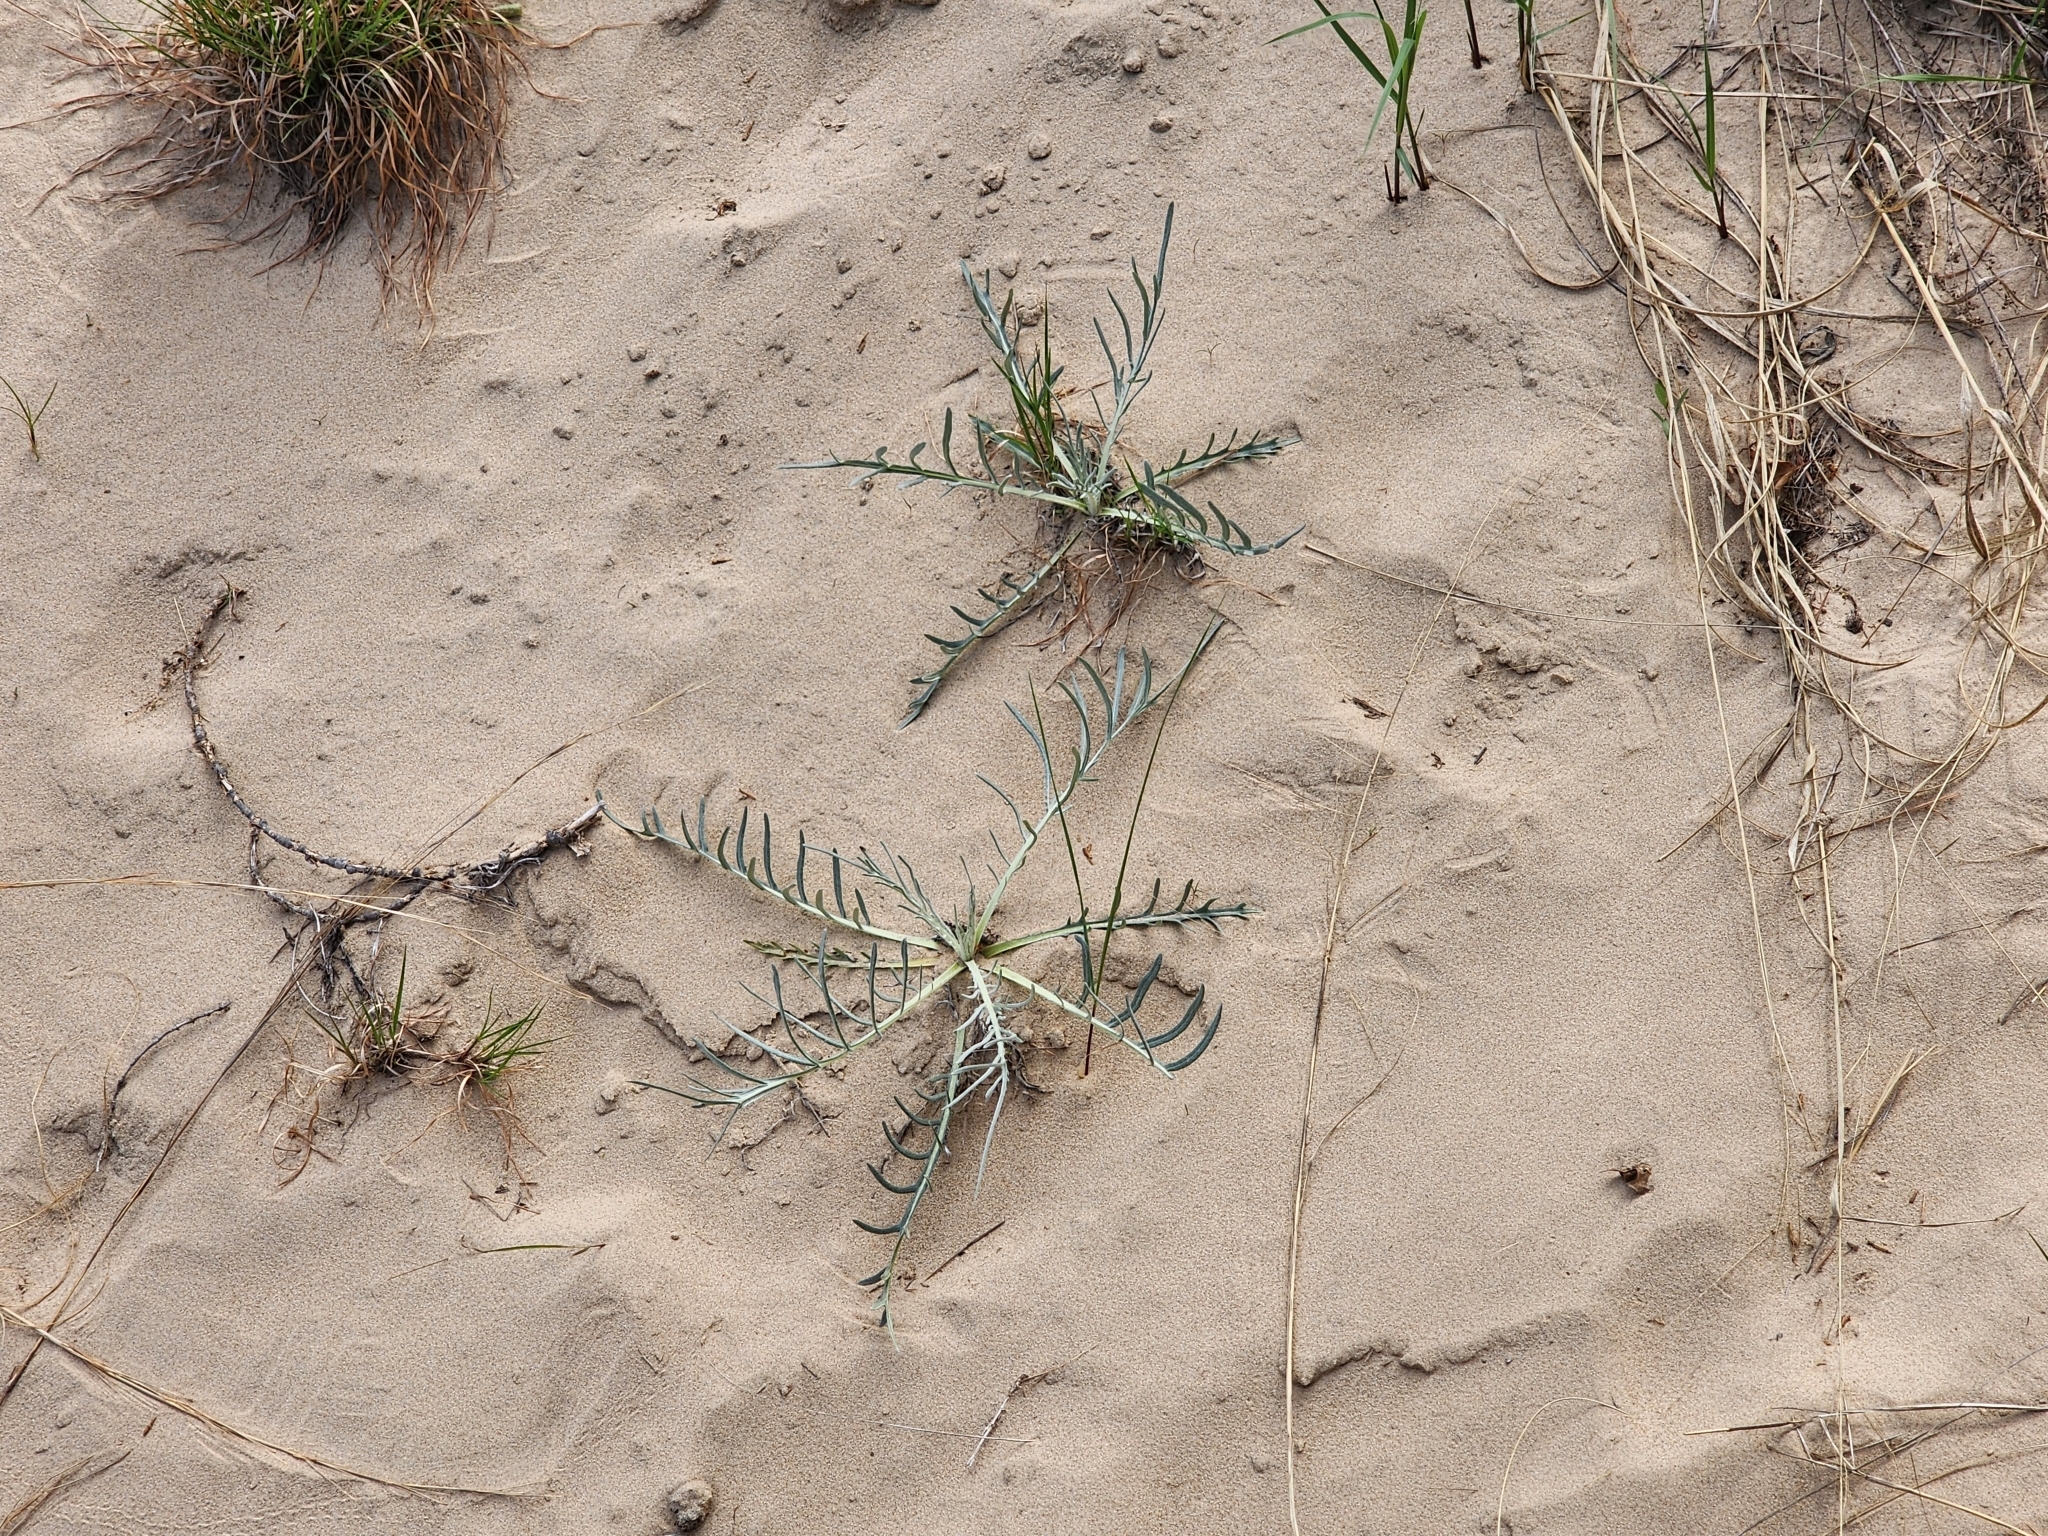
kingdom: Plantae
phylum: Tracheophyta
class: Magnoliopsida
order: Asterales
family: Asteraceae
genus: Cirsium
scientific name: Cirsium pitcheri
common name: Dune thistle
